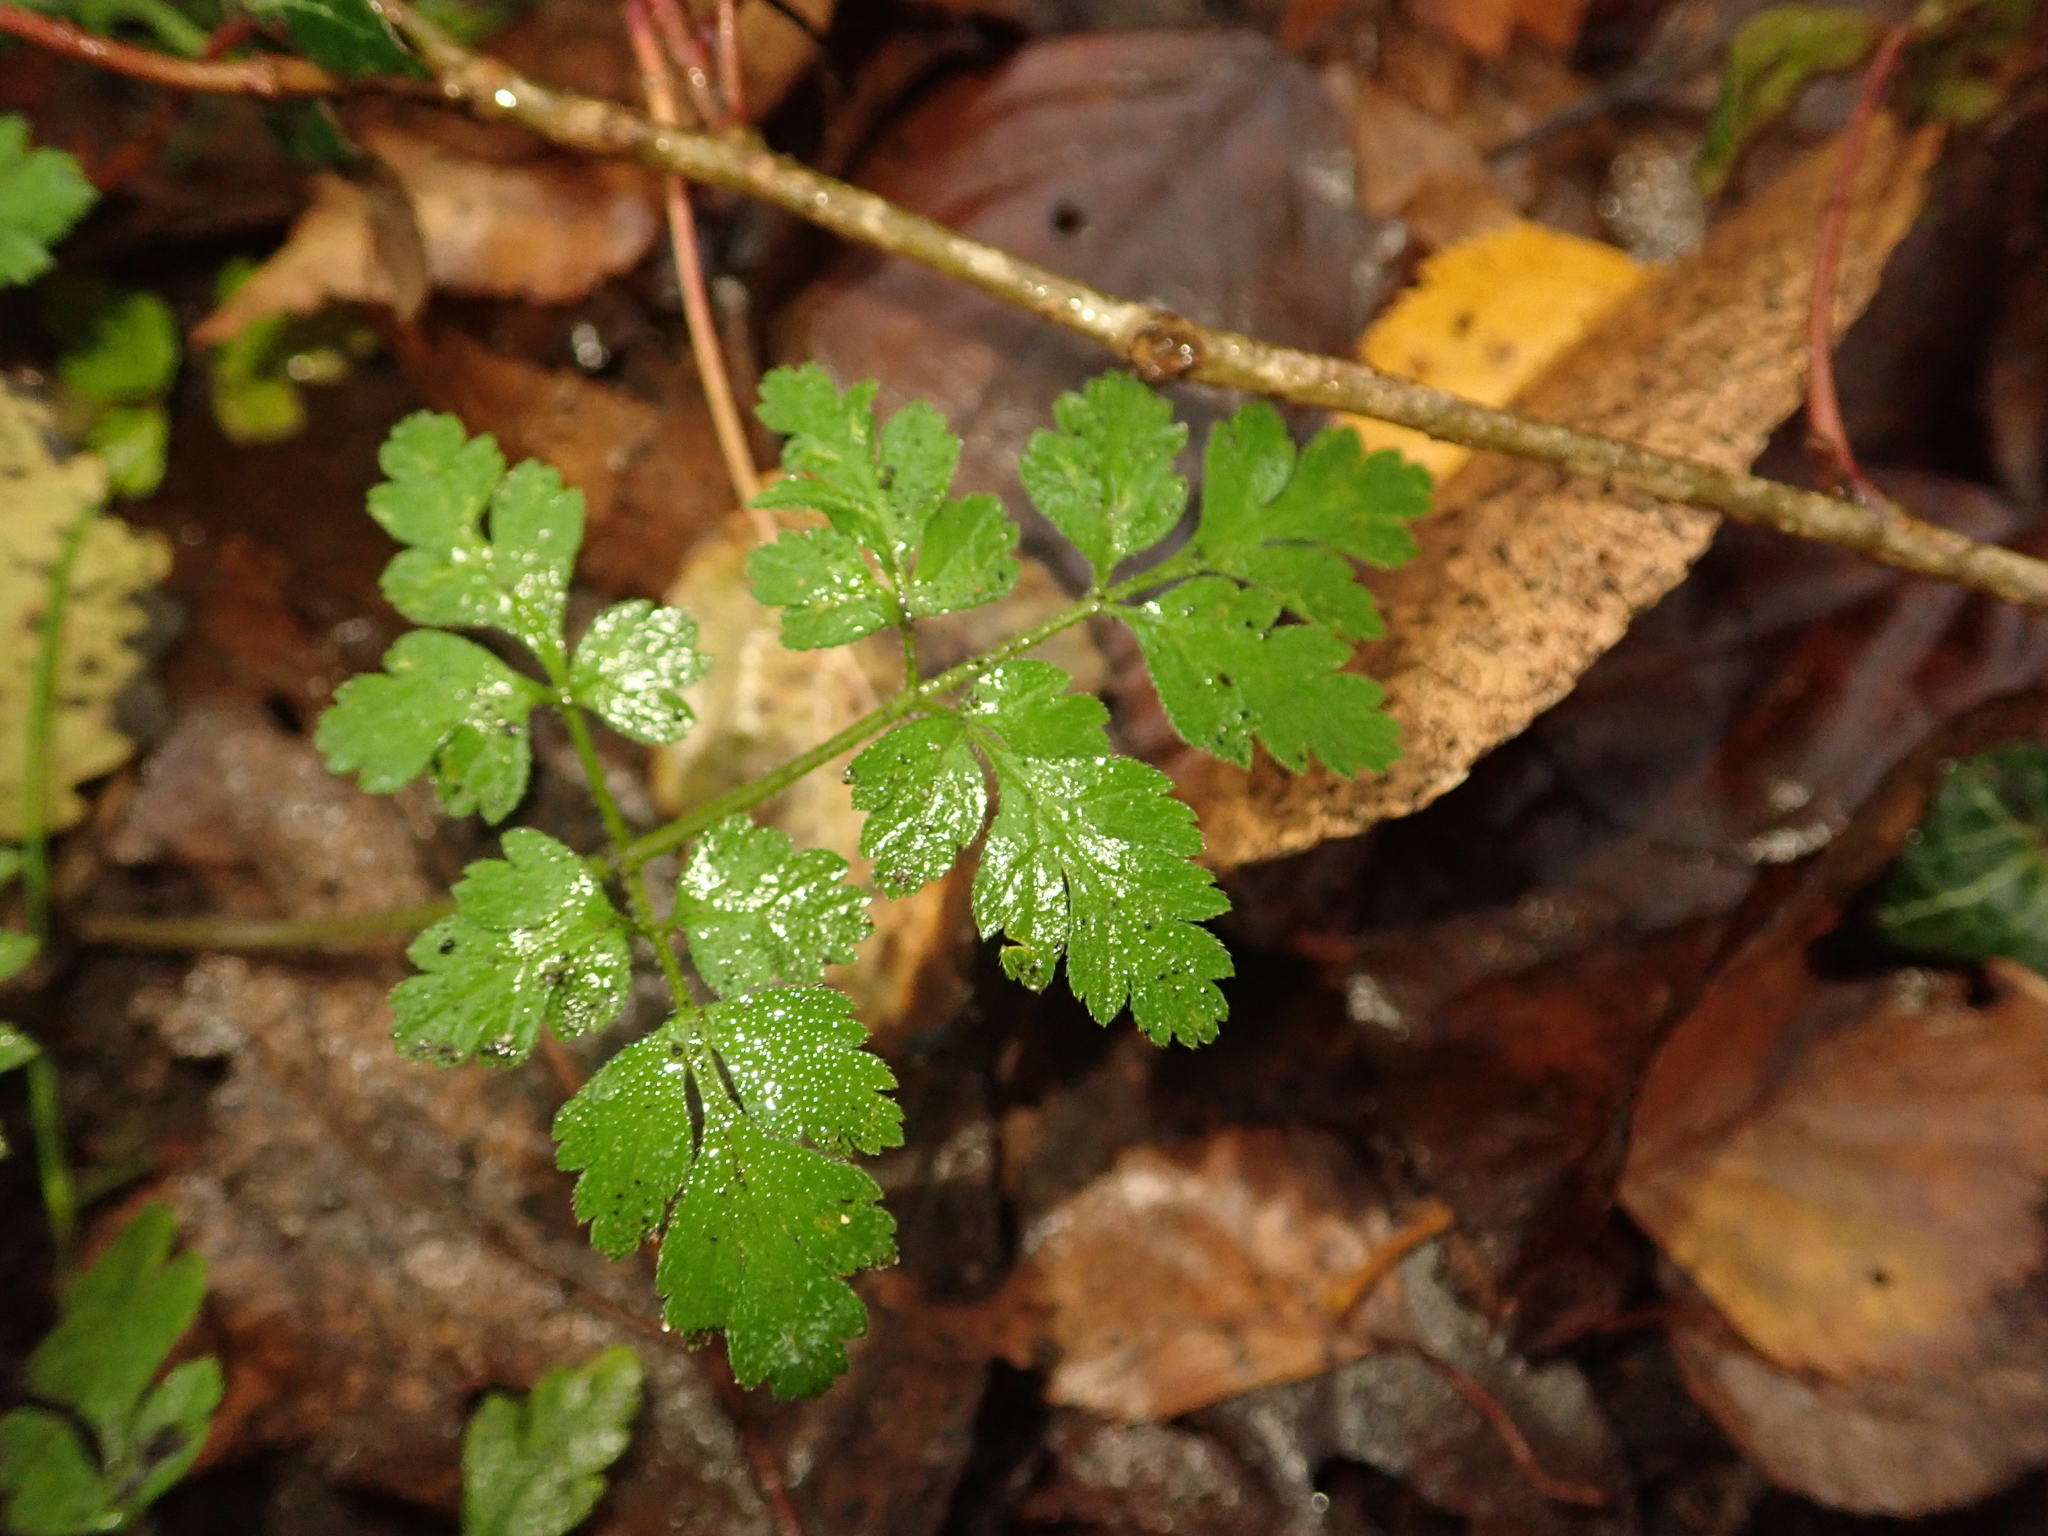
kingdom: Plantae
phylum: Tracheophyta
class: Magnoliopsida
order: Apiales
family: Apiaceae
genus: Chaerophyllum
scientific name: Chaerophyllum temulum
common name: Rough chervil
